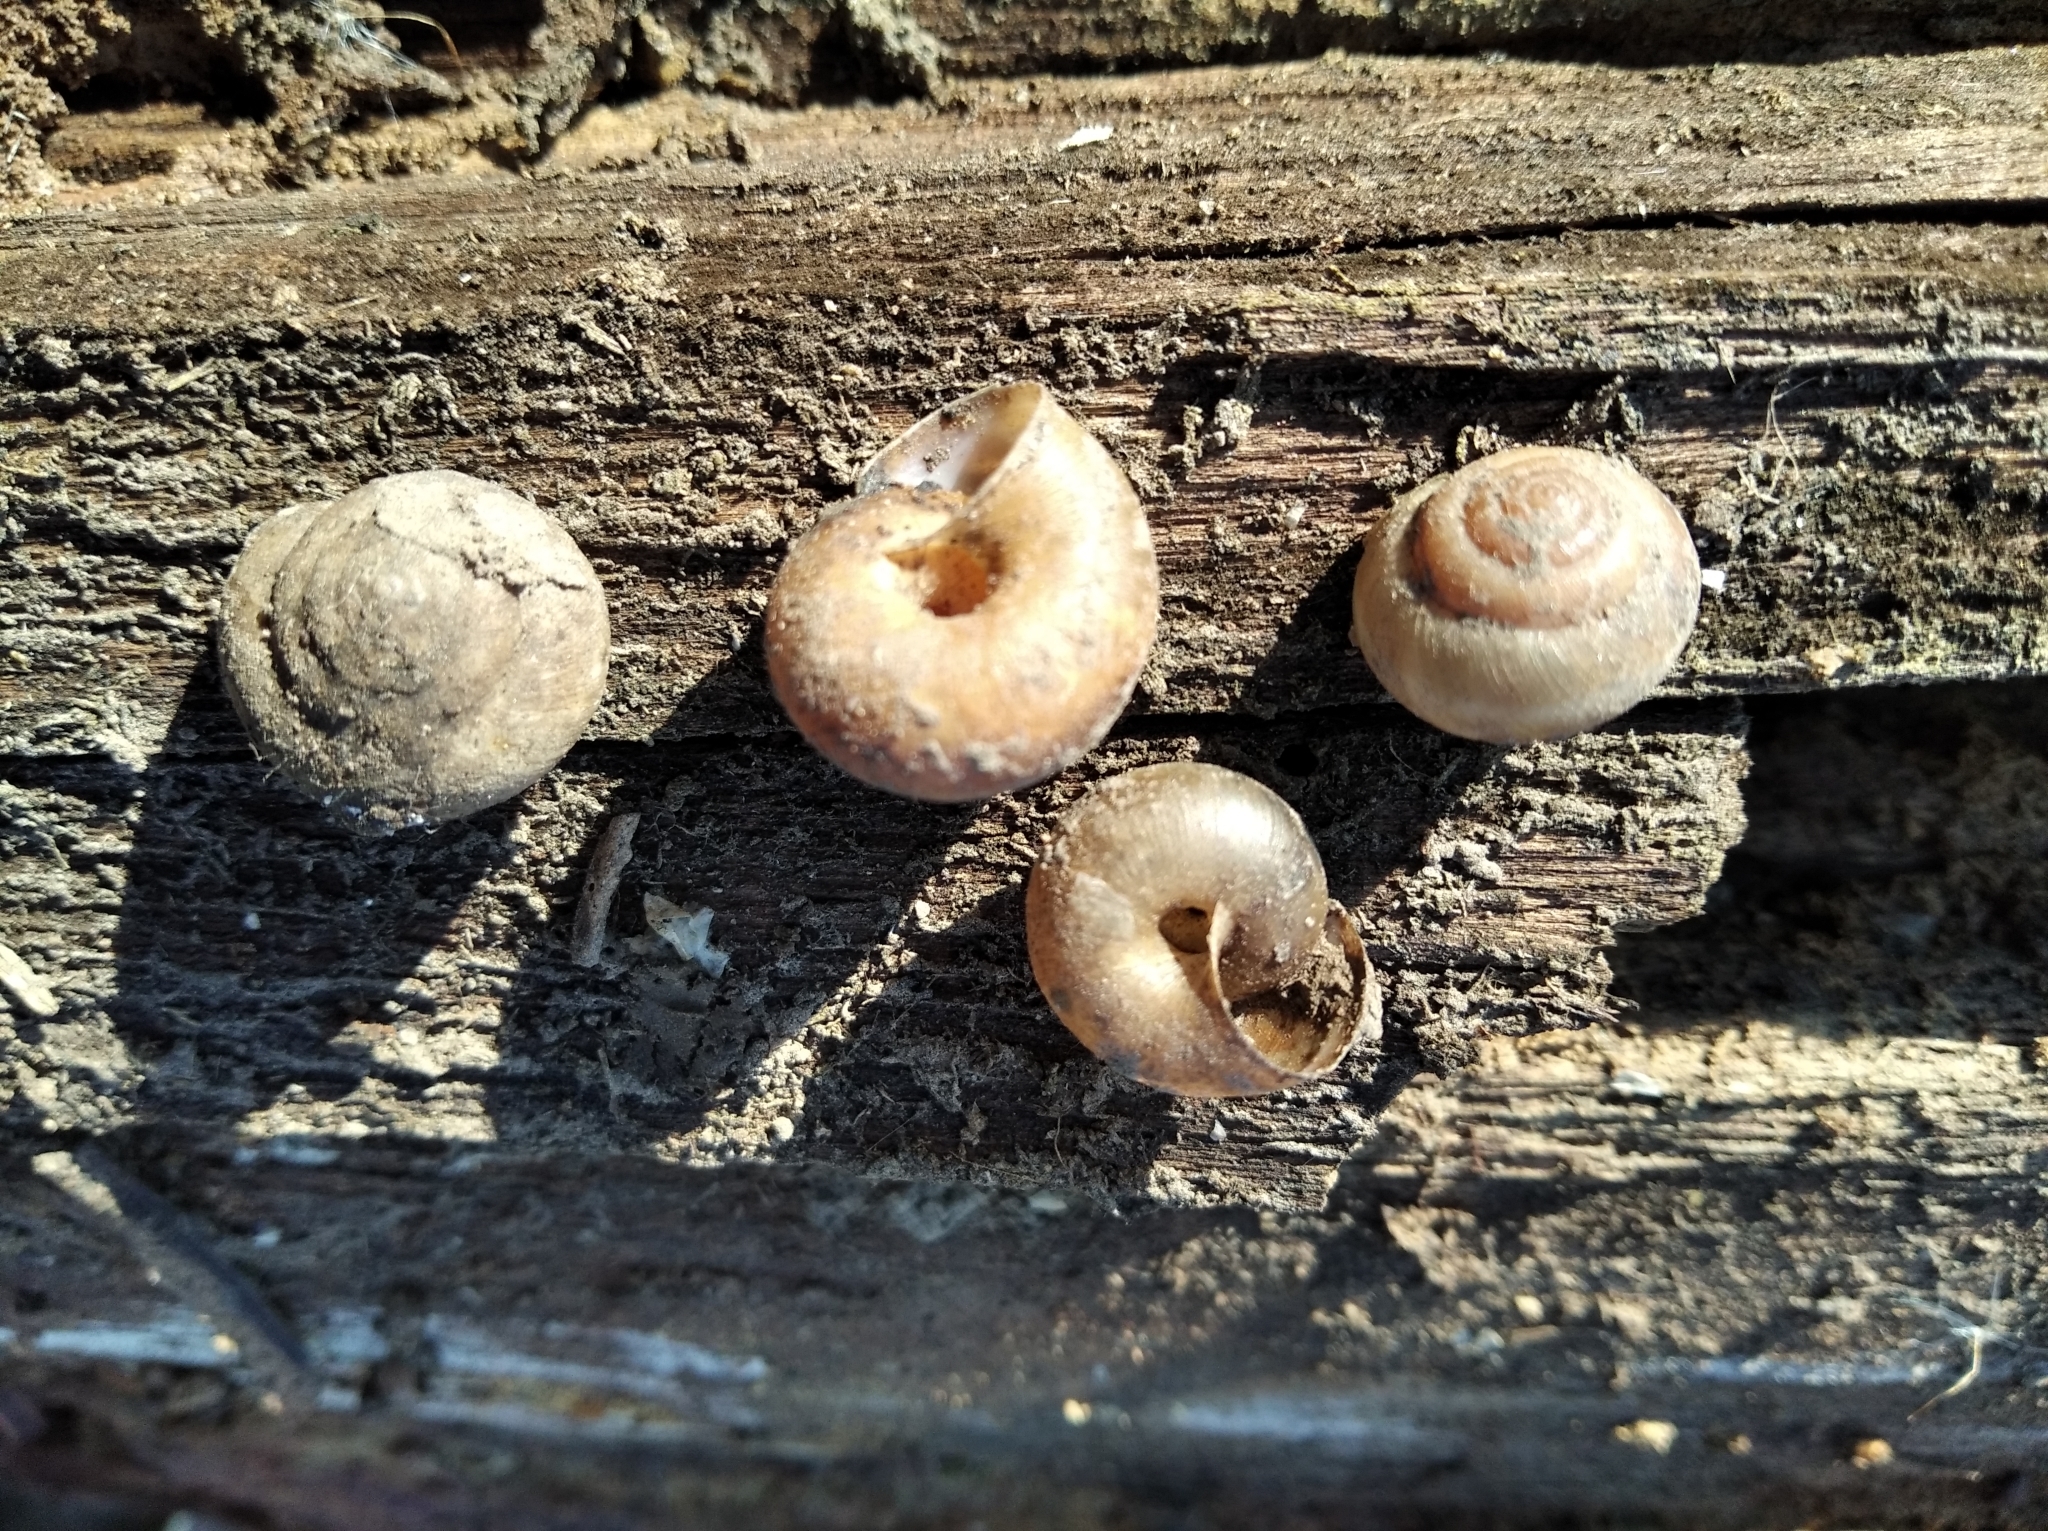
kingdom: Animalia
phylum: Mollusca
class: Gastropoda
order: Stylommatophora
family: Hygromiidae
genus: Euomphalia
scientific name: Euomphalia strigella
